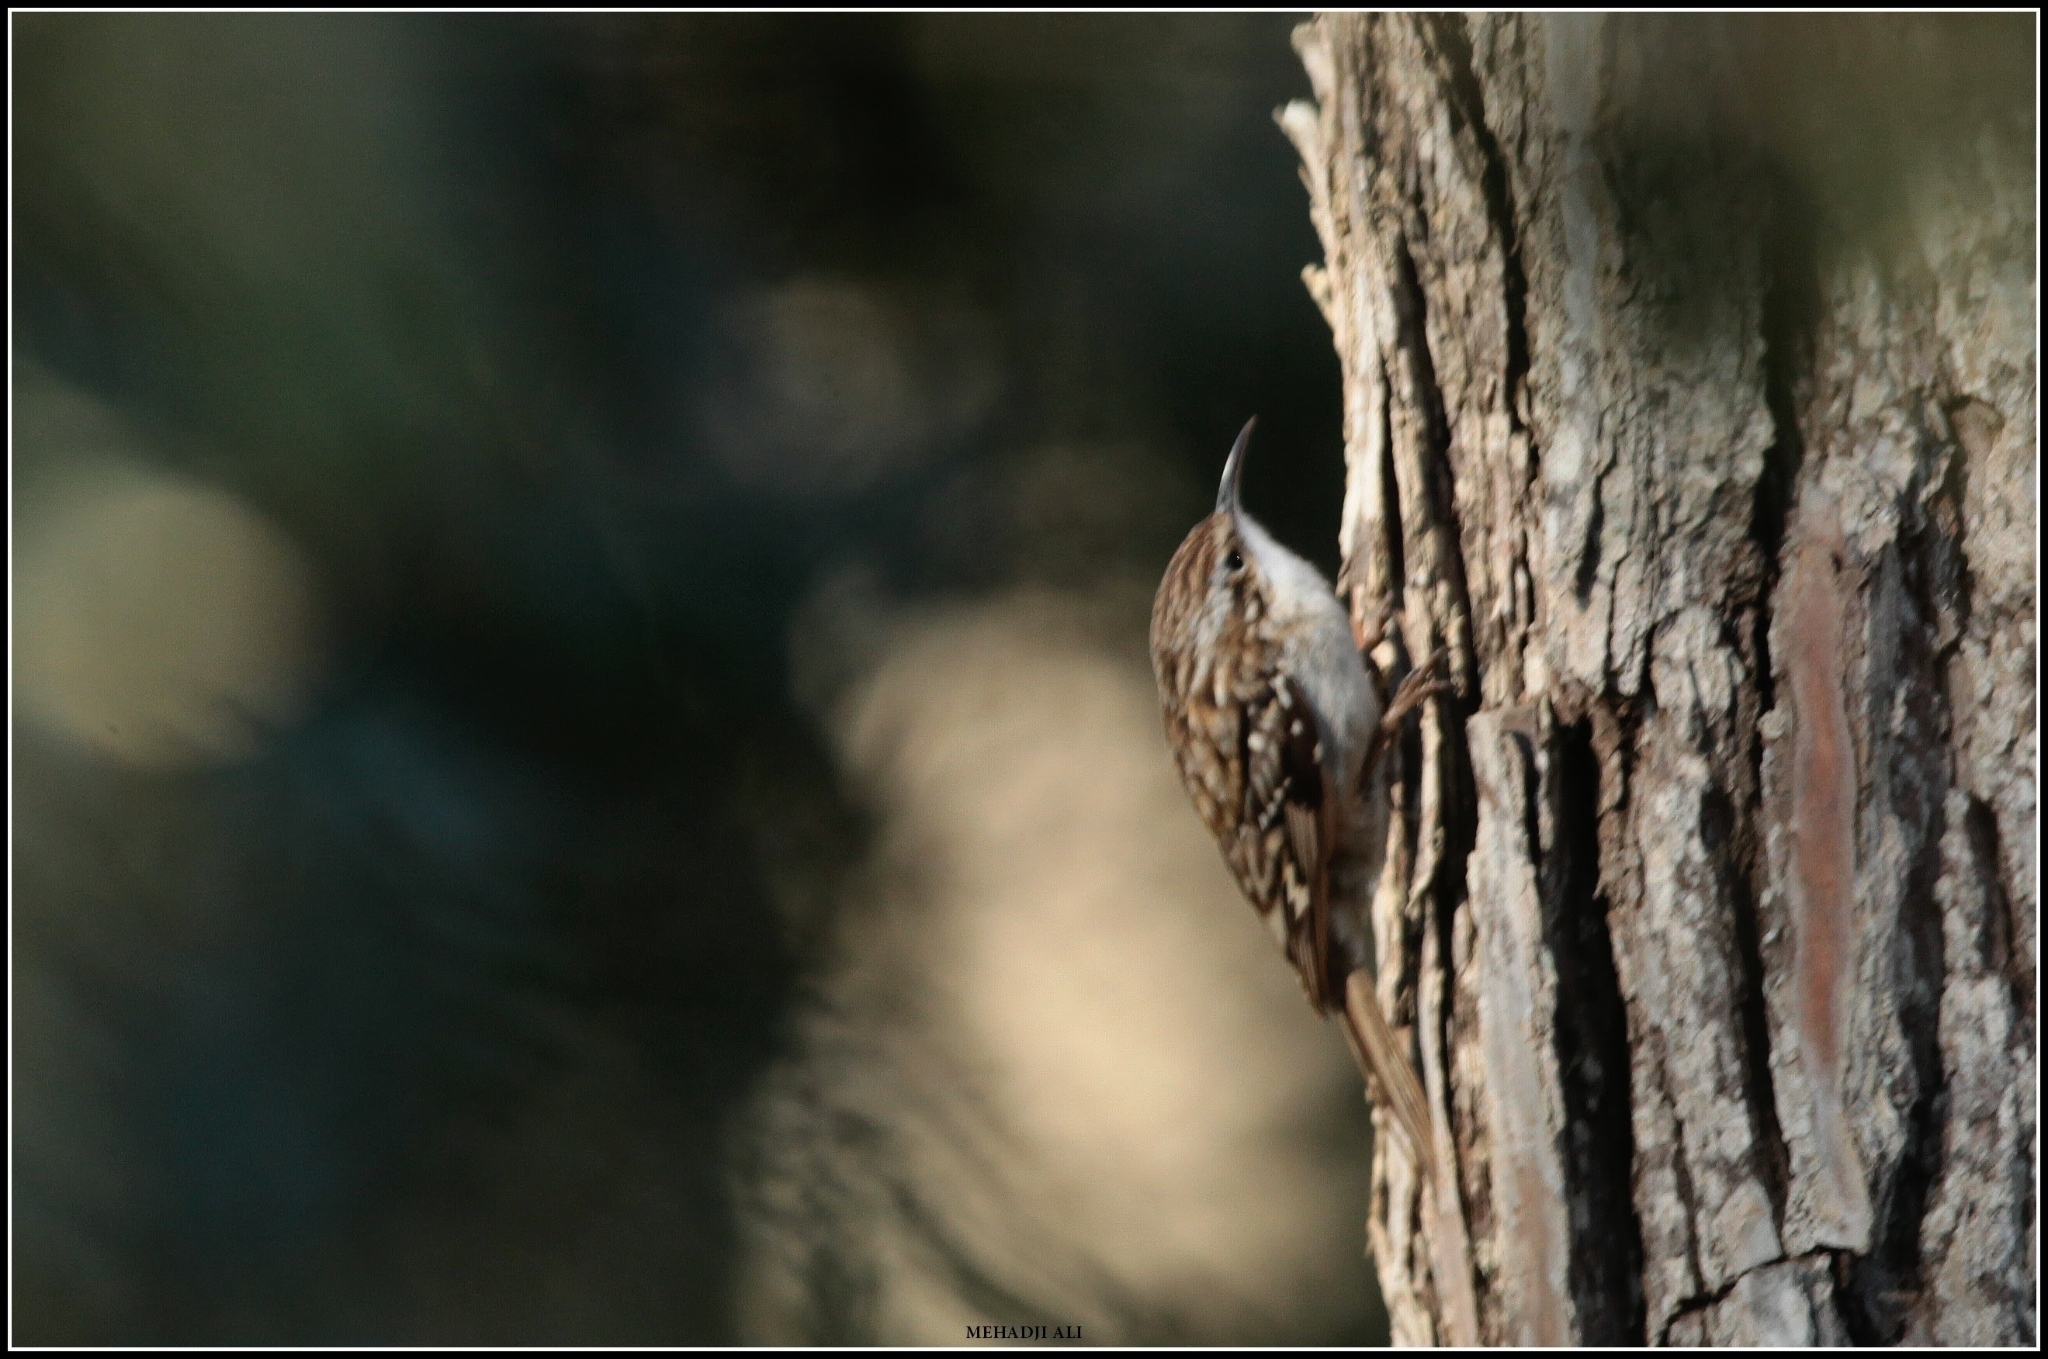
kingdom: Animalia
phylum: Chordata
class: Aves
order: Passeriformes
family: Certhiidae
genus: Certhia
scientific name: Certhia brachydactyla
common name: Short-toed treecreeper
